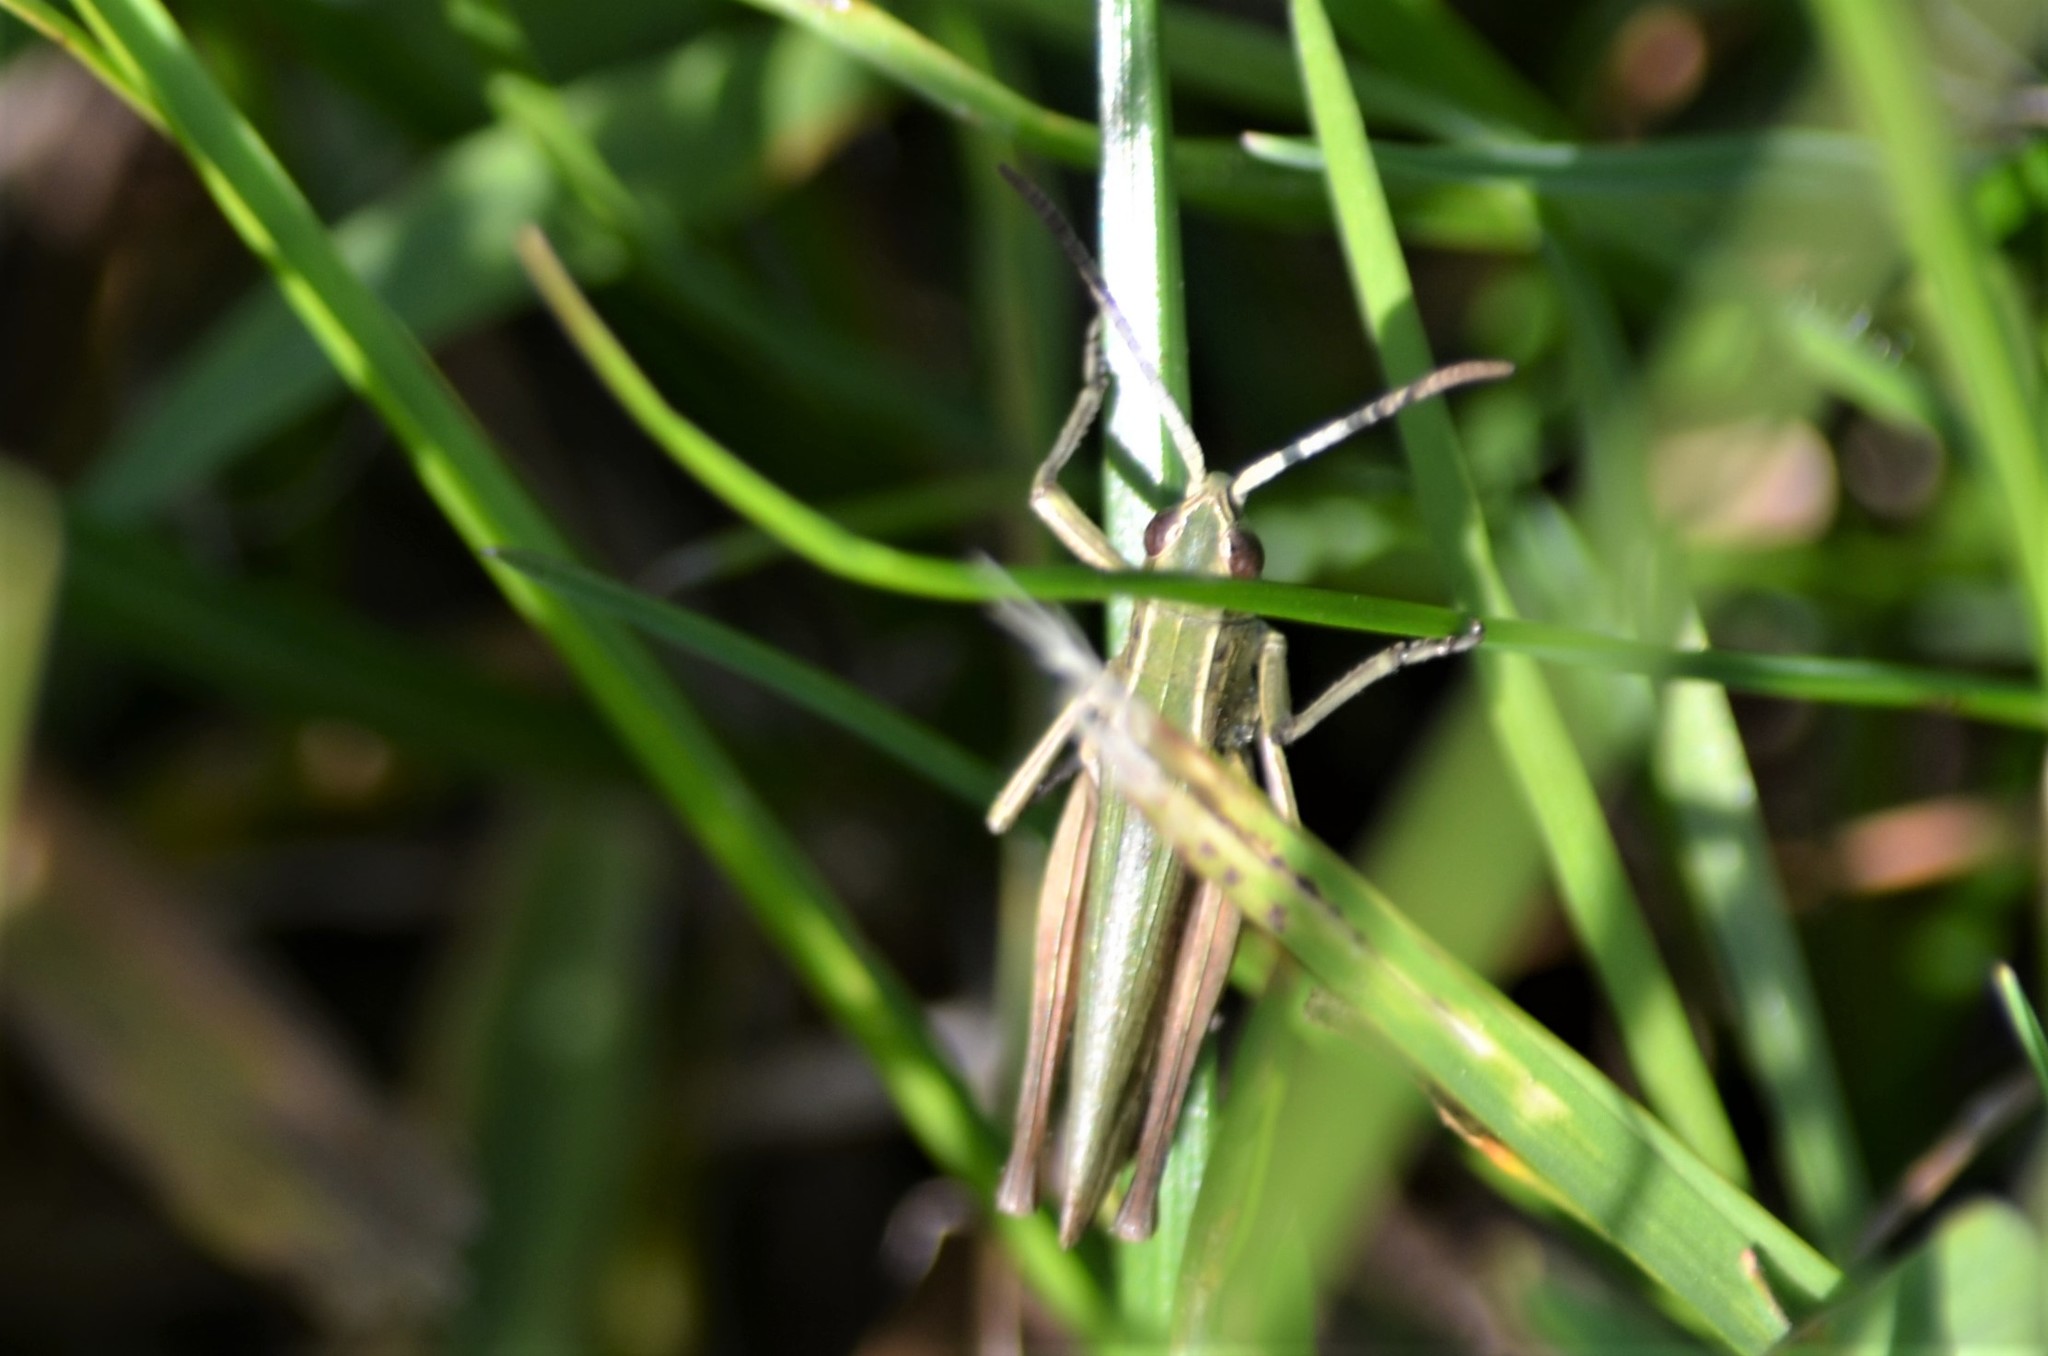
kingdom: Animalia
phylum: Arthropoda
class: Insecta
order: Orthoptera
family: Acrididae
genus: Chorthippus
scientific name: Chorthippus albomarginatus
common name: Lesser marsh grasshopper
